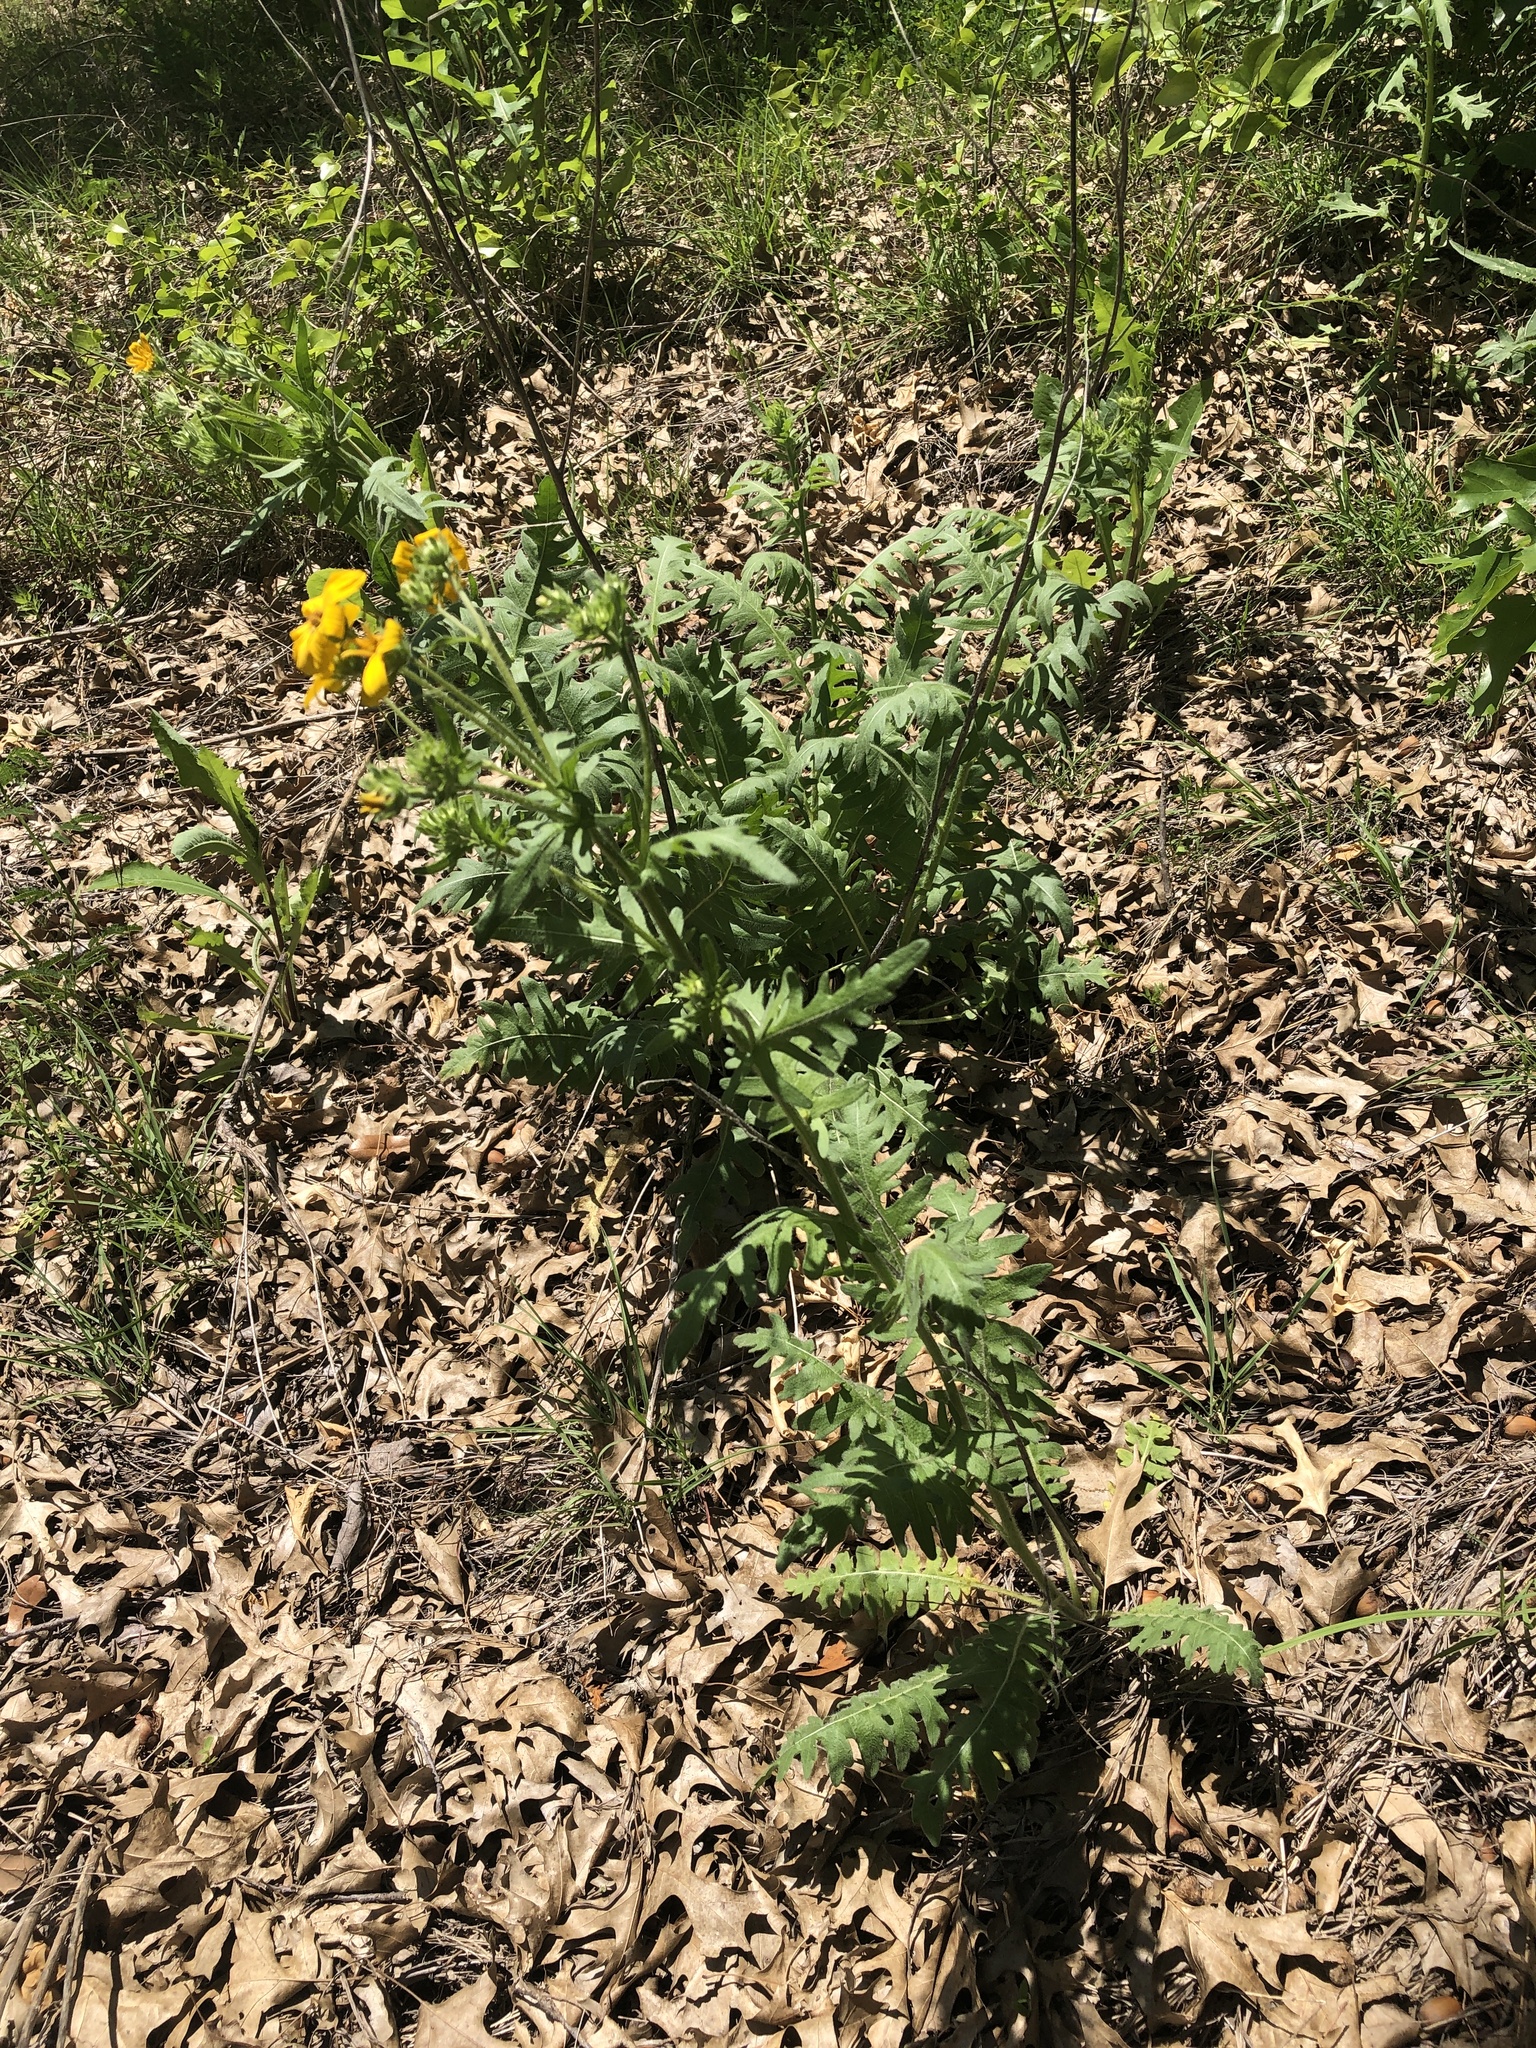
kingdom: Plantae
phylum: Tracheophyta
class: Magnoliopsida
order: Asterales
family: Asteraceae
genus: Engelmannia
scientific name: Engelmannia peristenia
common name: Engelmann's daisy
